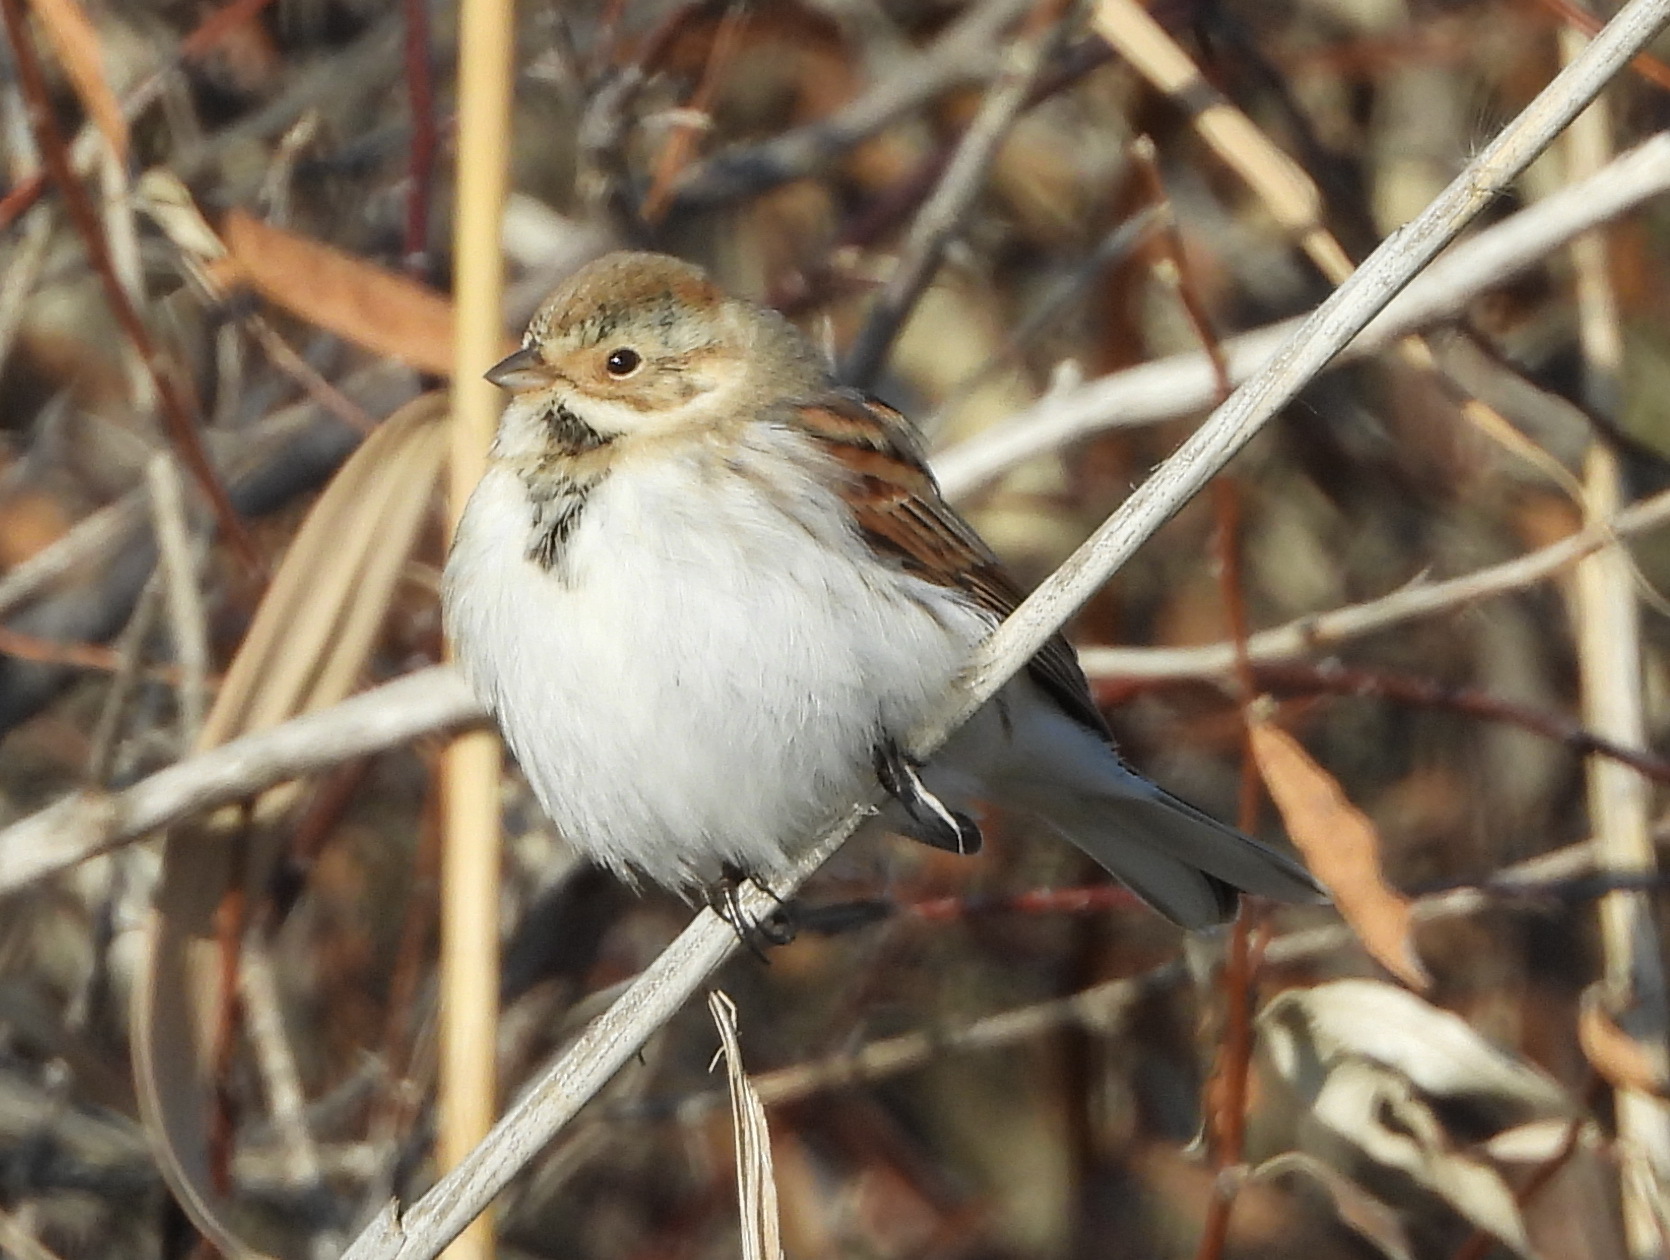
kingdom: Animalia
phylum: Chordata
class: Aves
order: Passeriformes
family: Emberizidae
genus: Emberiza
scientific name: Emberiza schoeniclus
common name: Reed bunting
